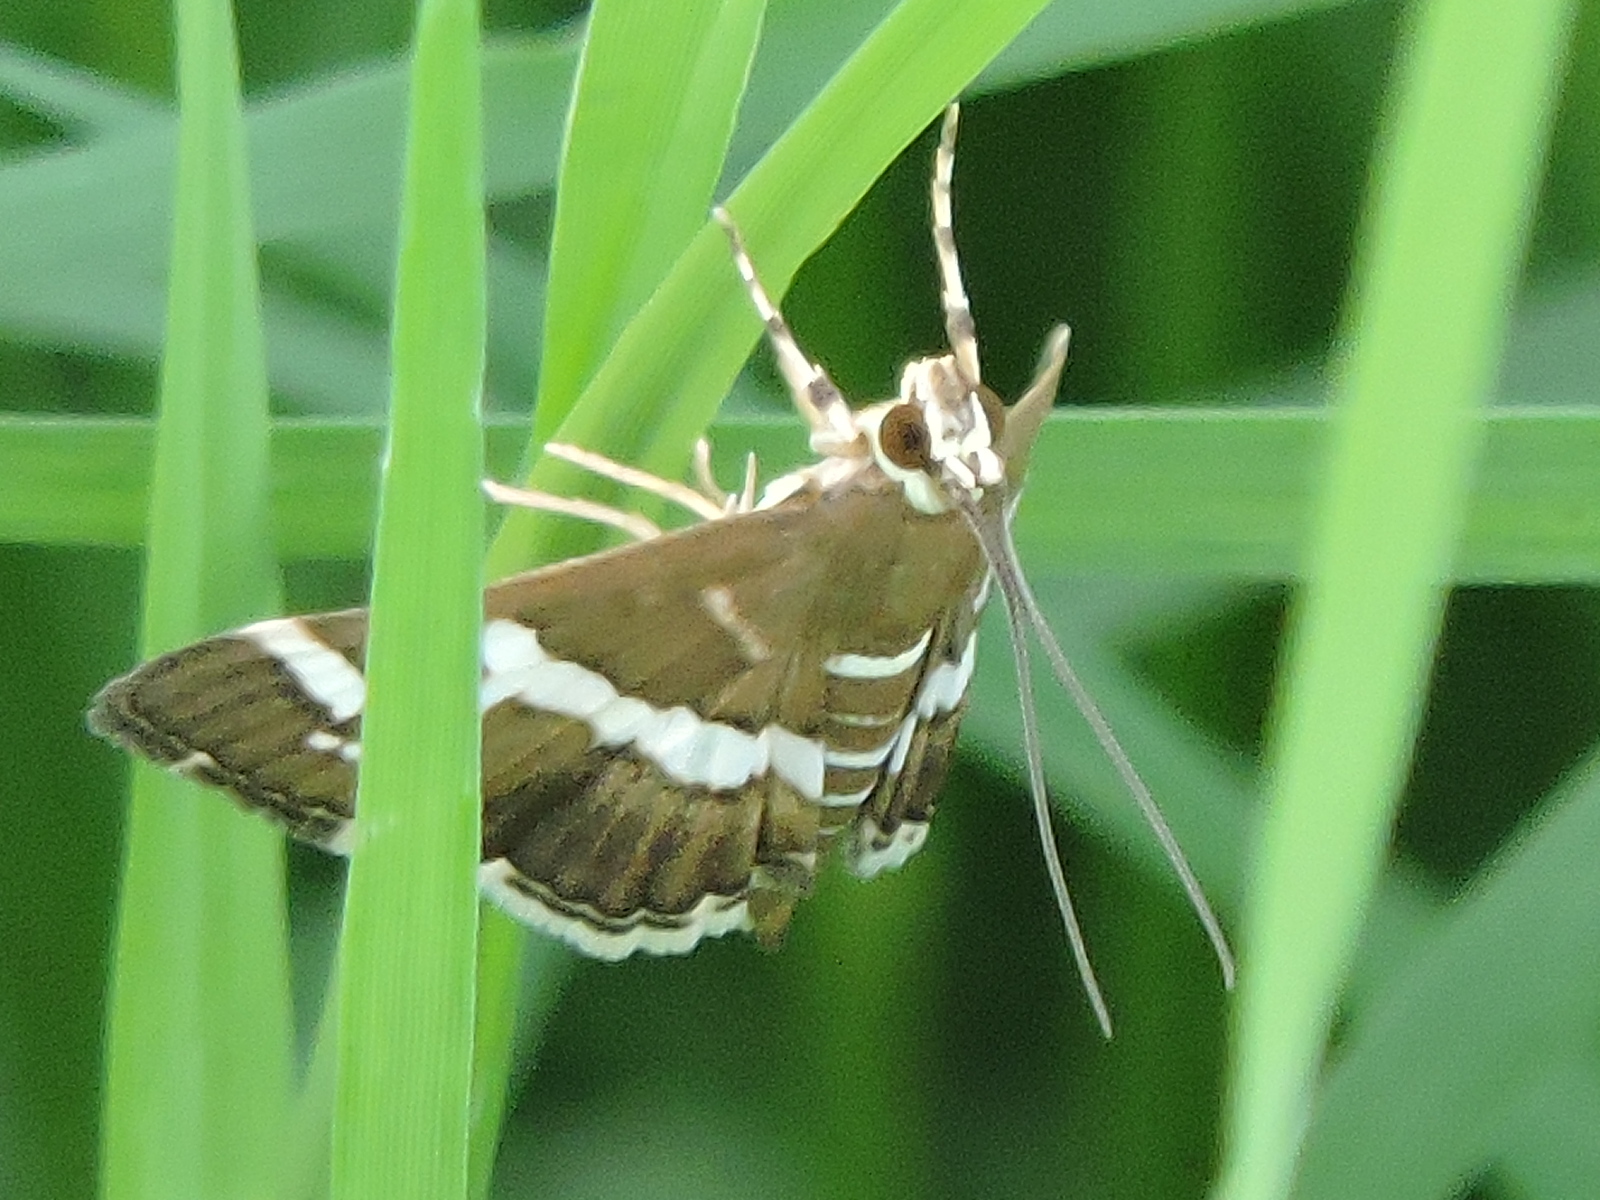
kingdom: Animalia
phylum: Arthropoda
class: Insecta
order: Lepidoptera
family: Crambidae
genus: Spoladea
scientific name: Spoladea recurvalis
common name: Beet webworm moth
